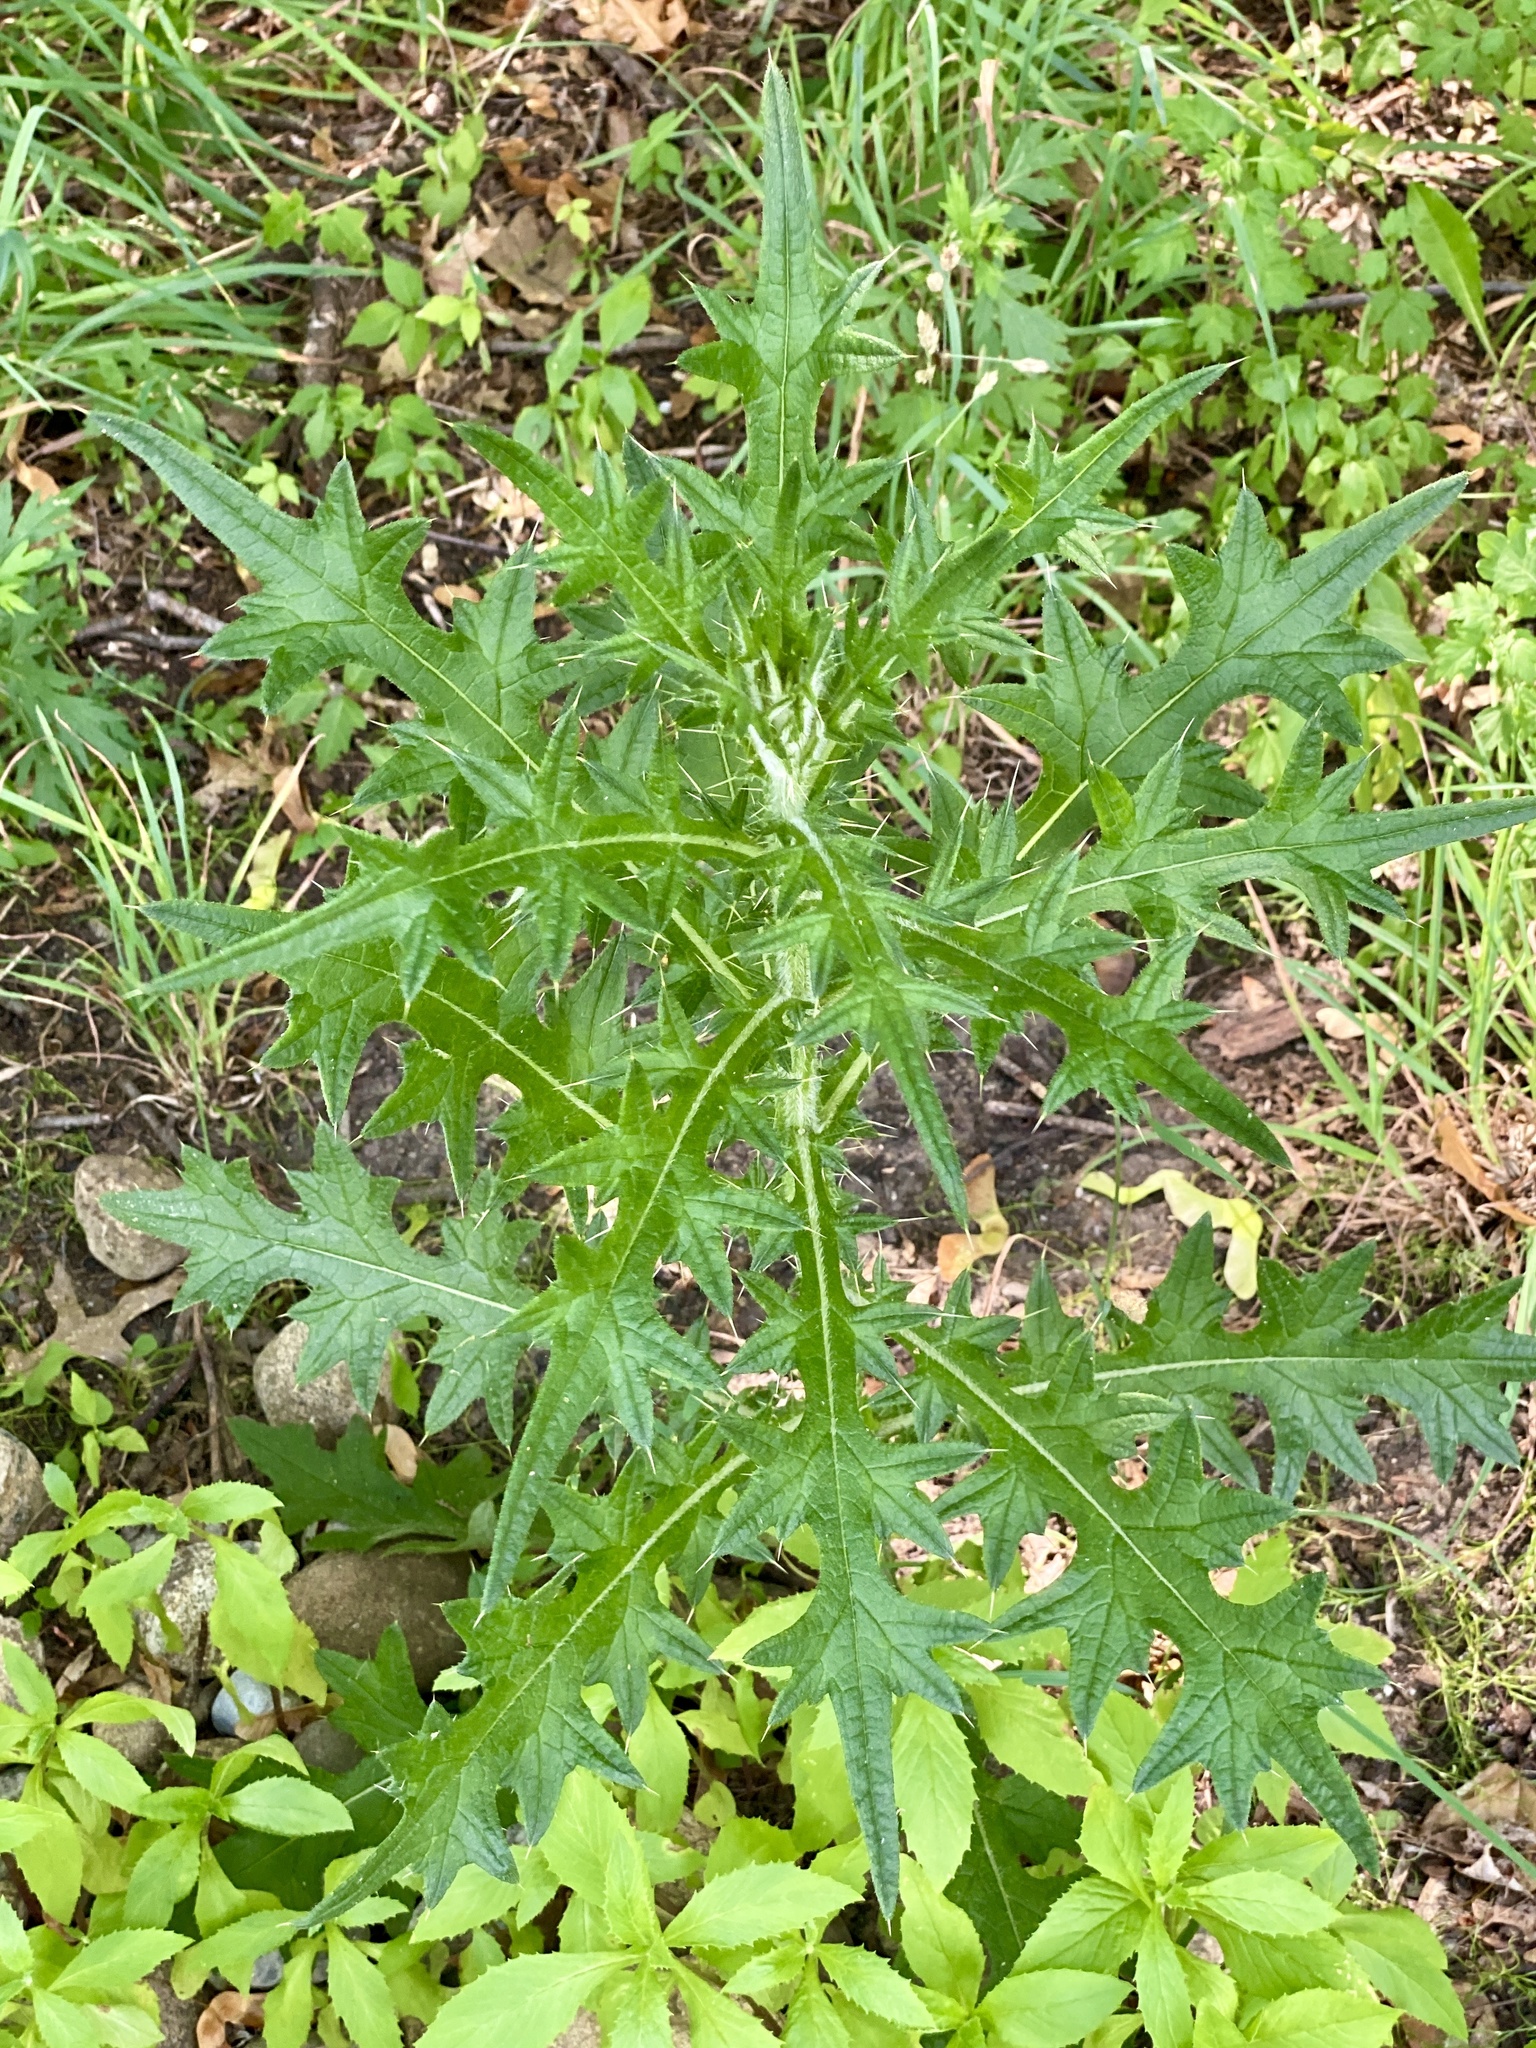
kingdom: Plantae
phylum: Tracheophyta
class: Magnoliopsida
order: Asterales
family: Asteraceae
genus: Cirsium
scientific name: Cirsium vulgare
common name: Bull thistle
